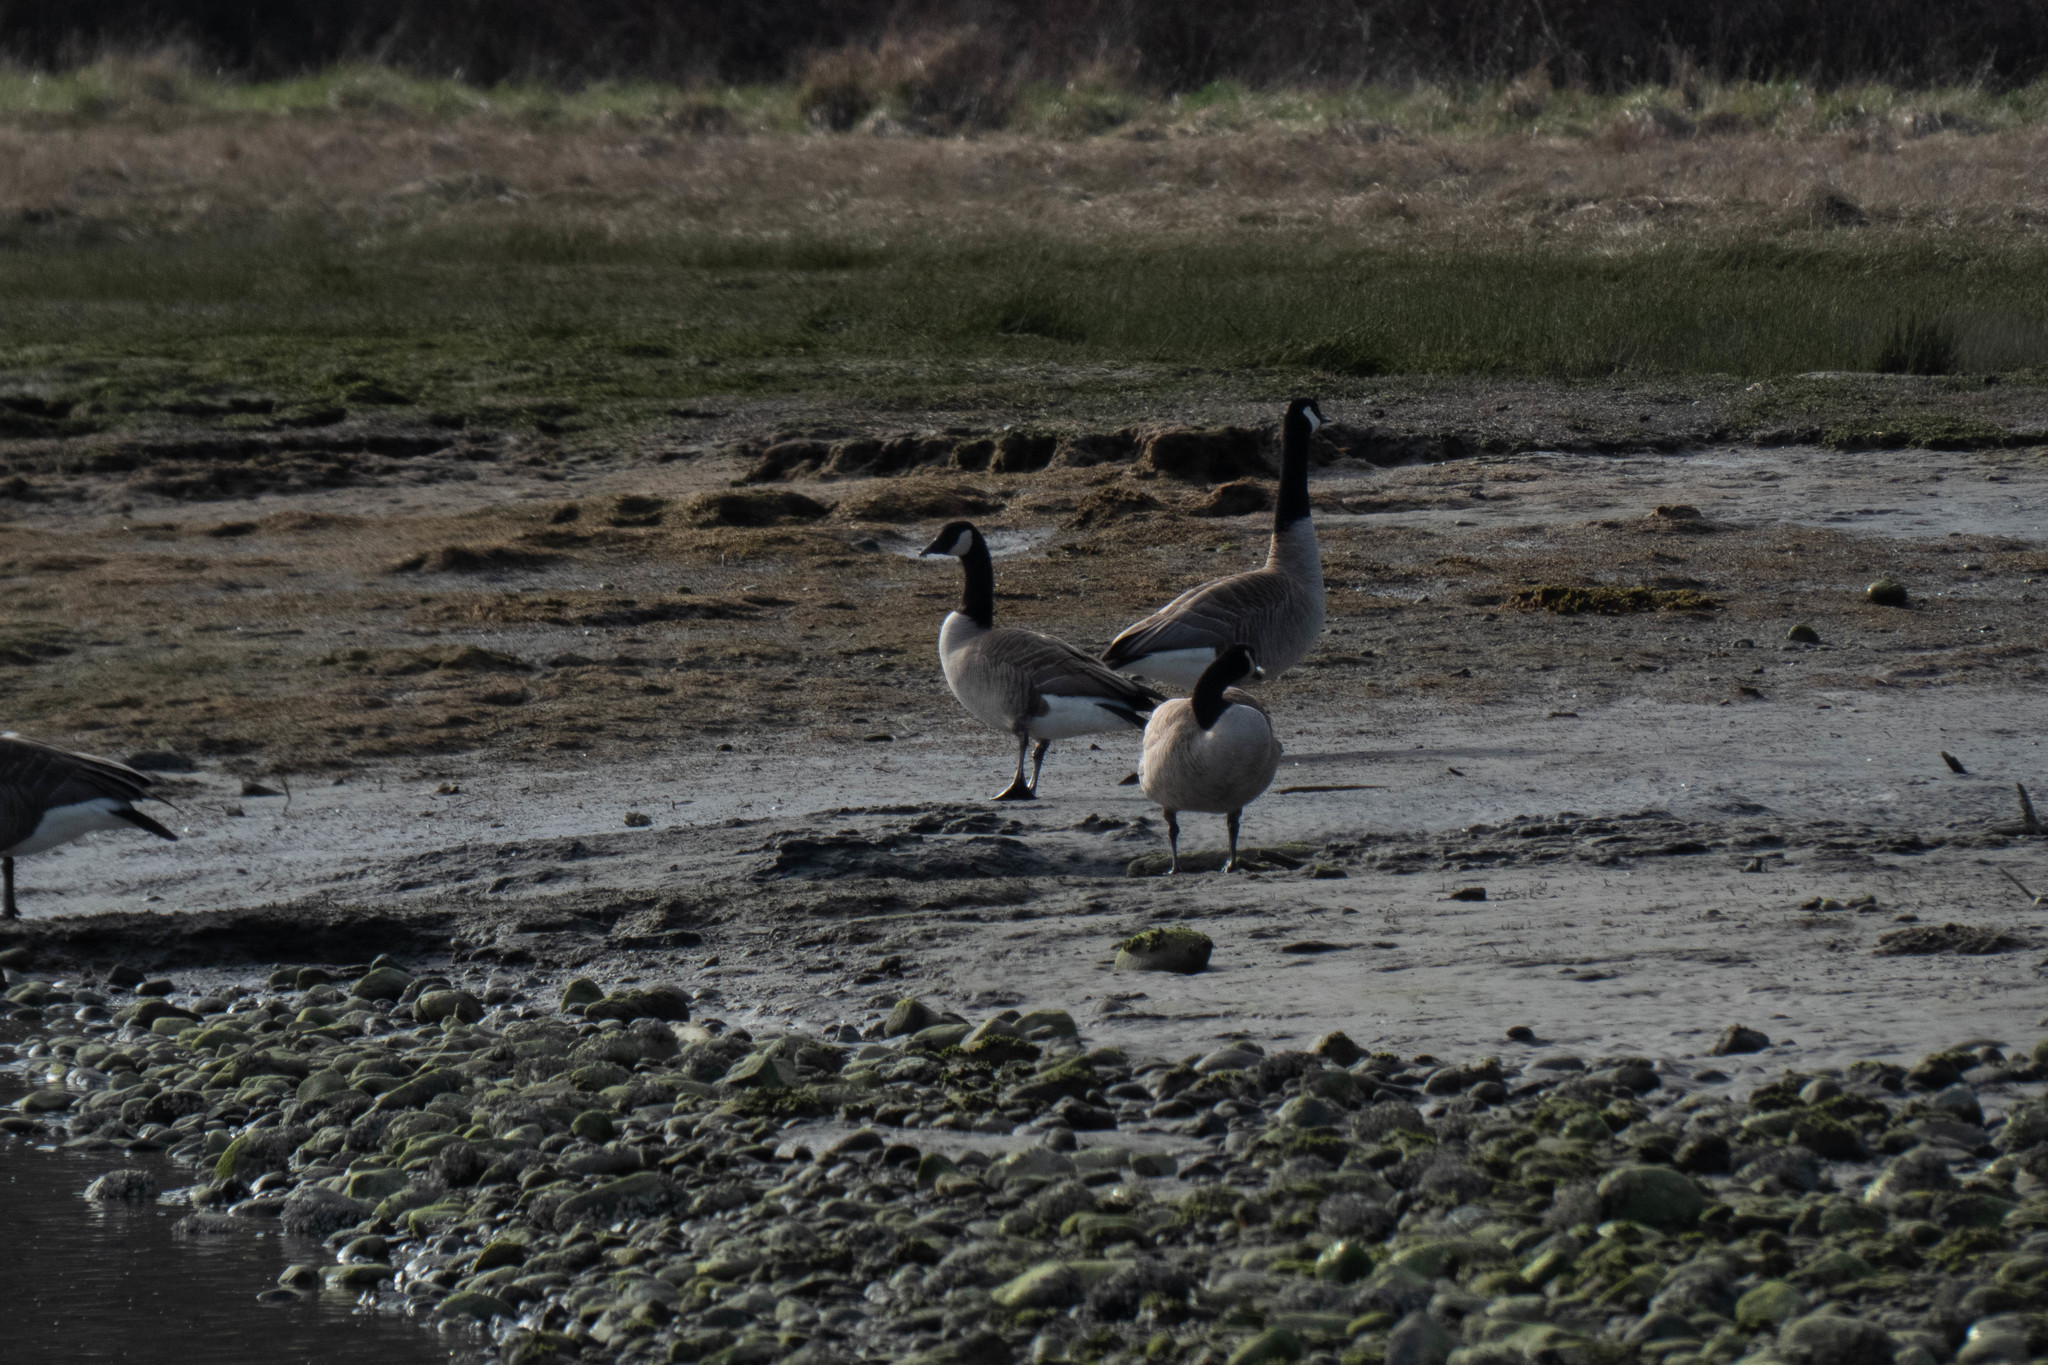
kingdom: Animalia
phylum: Chordata
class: Aves
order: Anseriformes
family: Anatidae
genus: Branta
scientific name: Branta canadensis
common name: Canada goose
